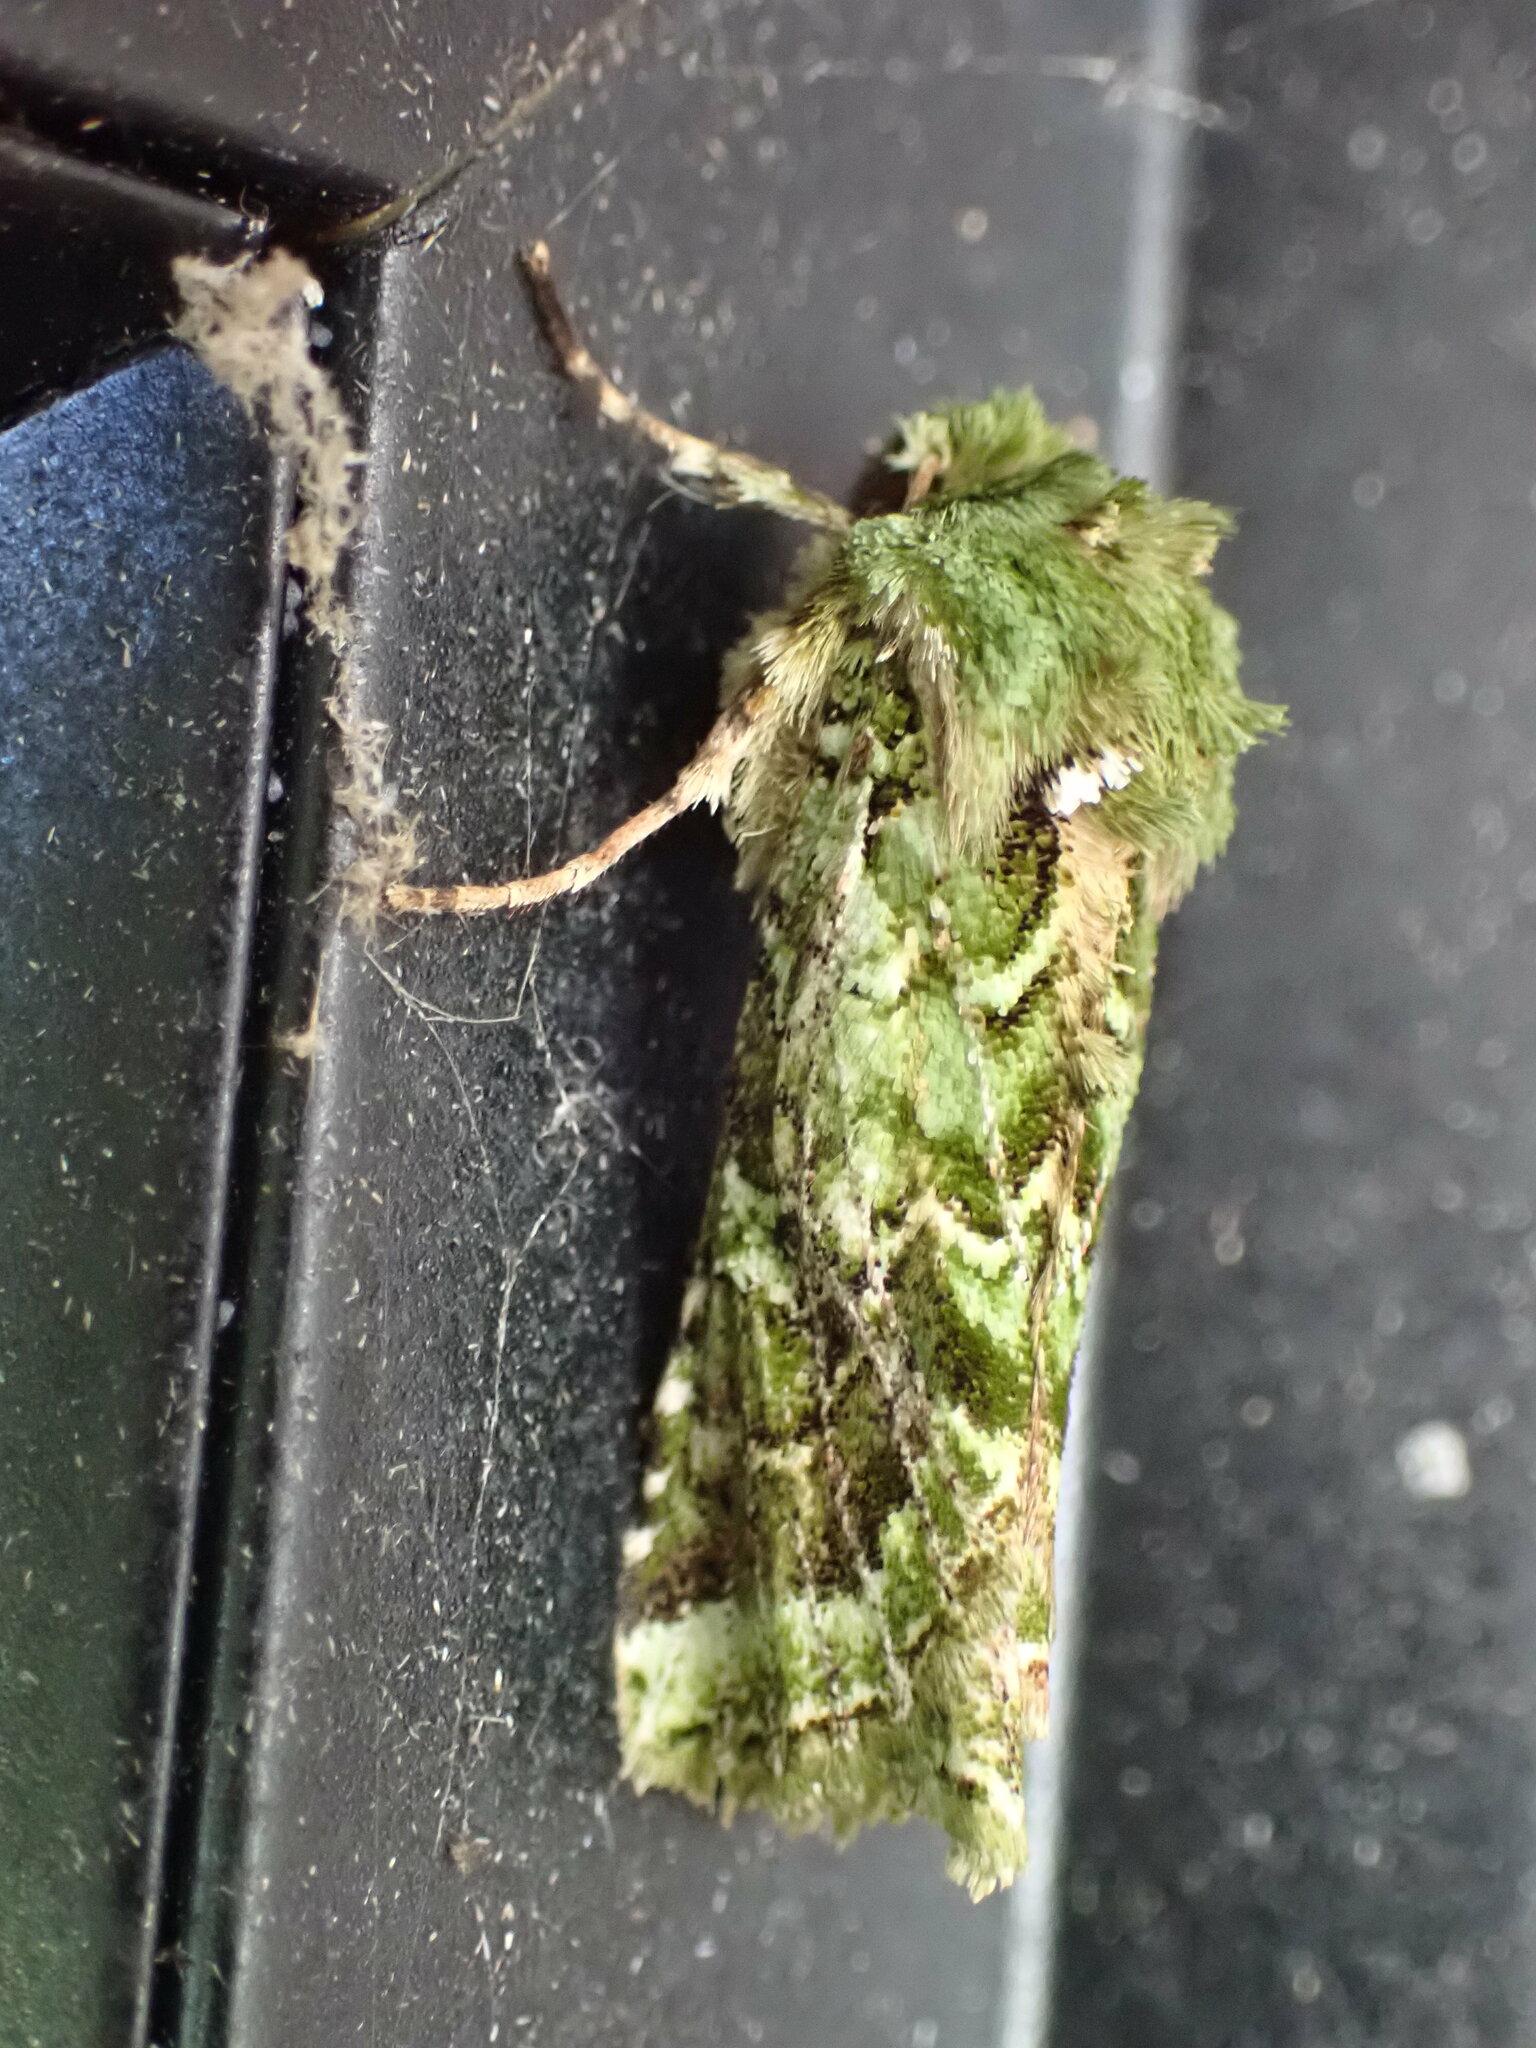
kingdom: Animalia
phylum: Arthropoda
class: Insecta
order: Lepidoptera
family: Noctuidae
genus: Feredayia
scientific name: Feredayia grammosa
